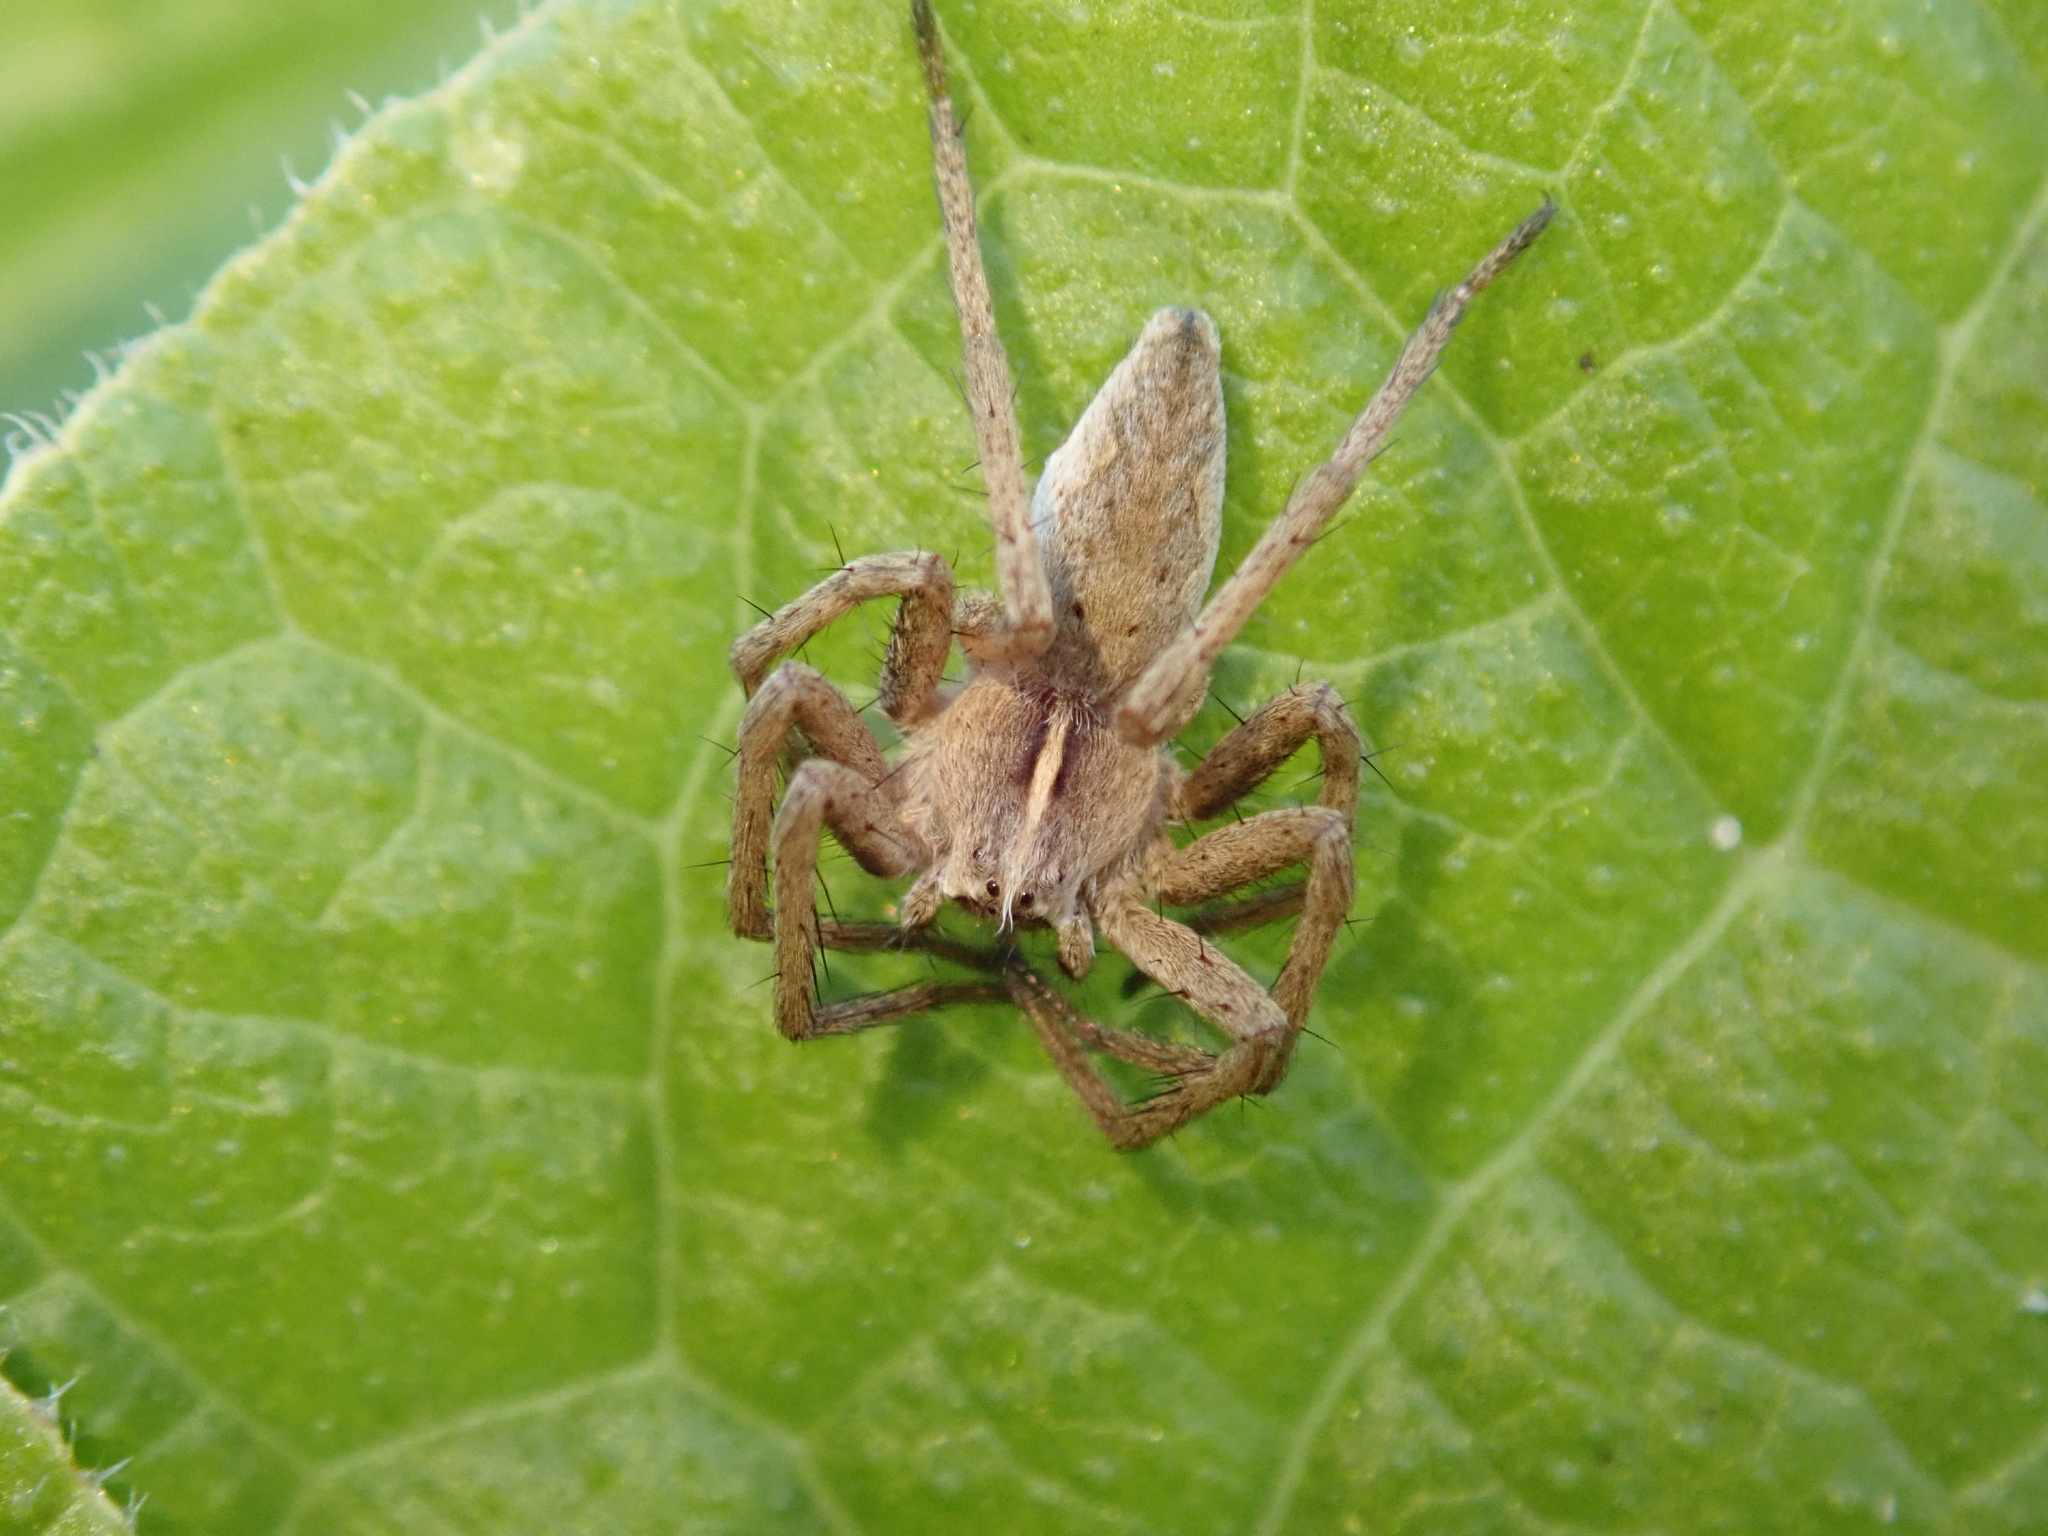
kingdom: Animalia
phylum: Arthropoda
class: Arachnida
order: Araneae
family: Pisauridae
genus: Pisaura
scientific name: Pisaura mirabilis
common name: Tent spider
